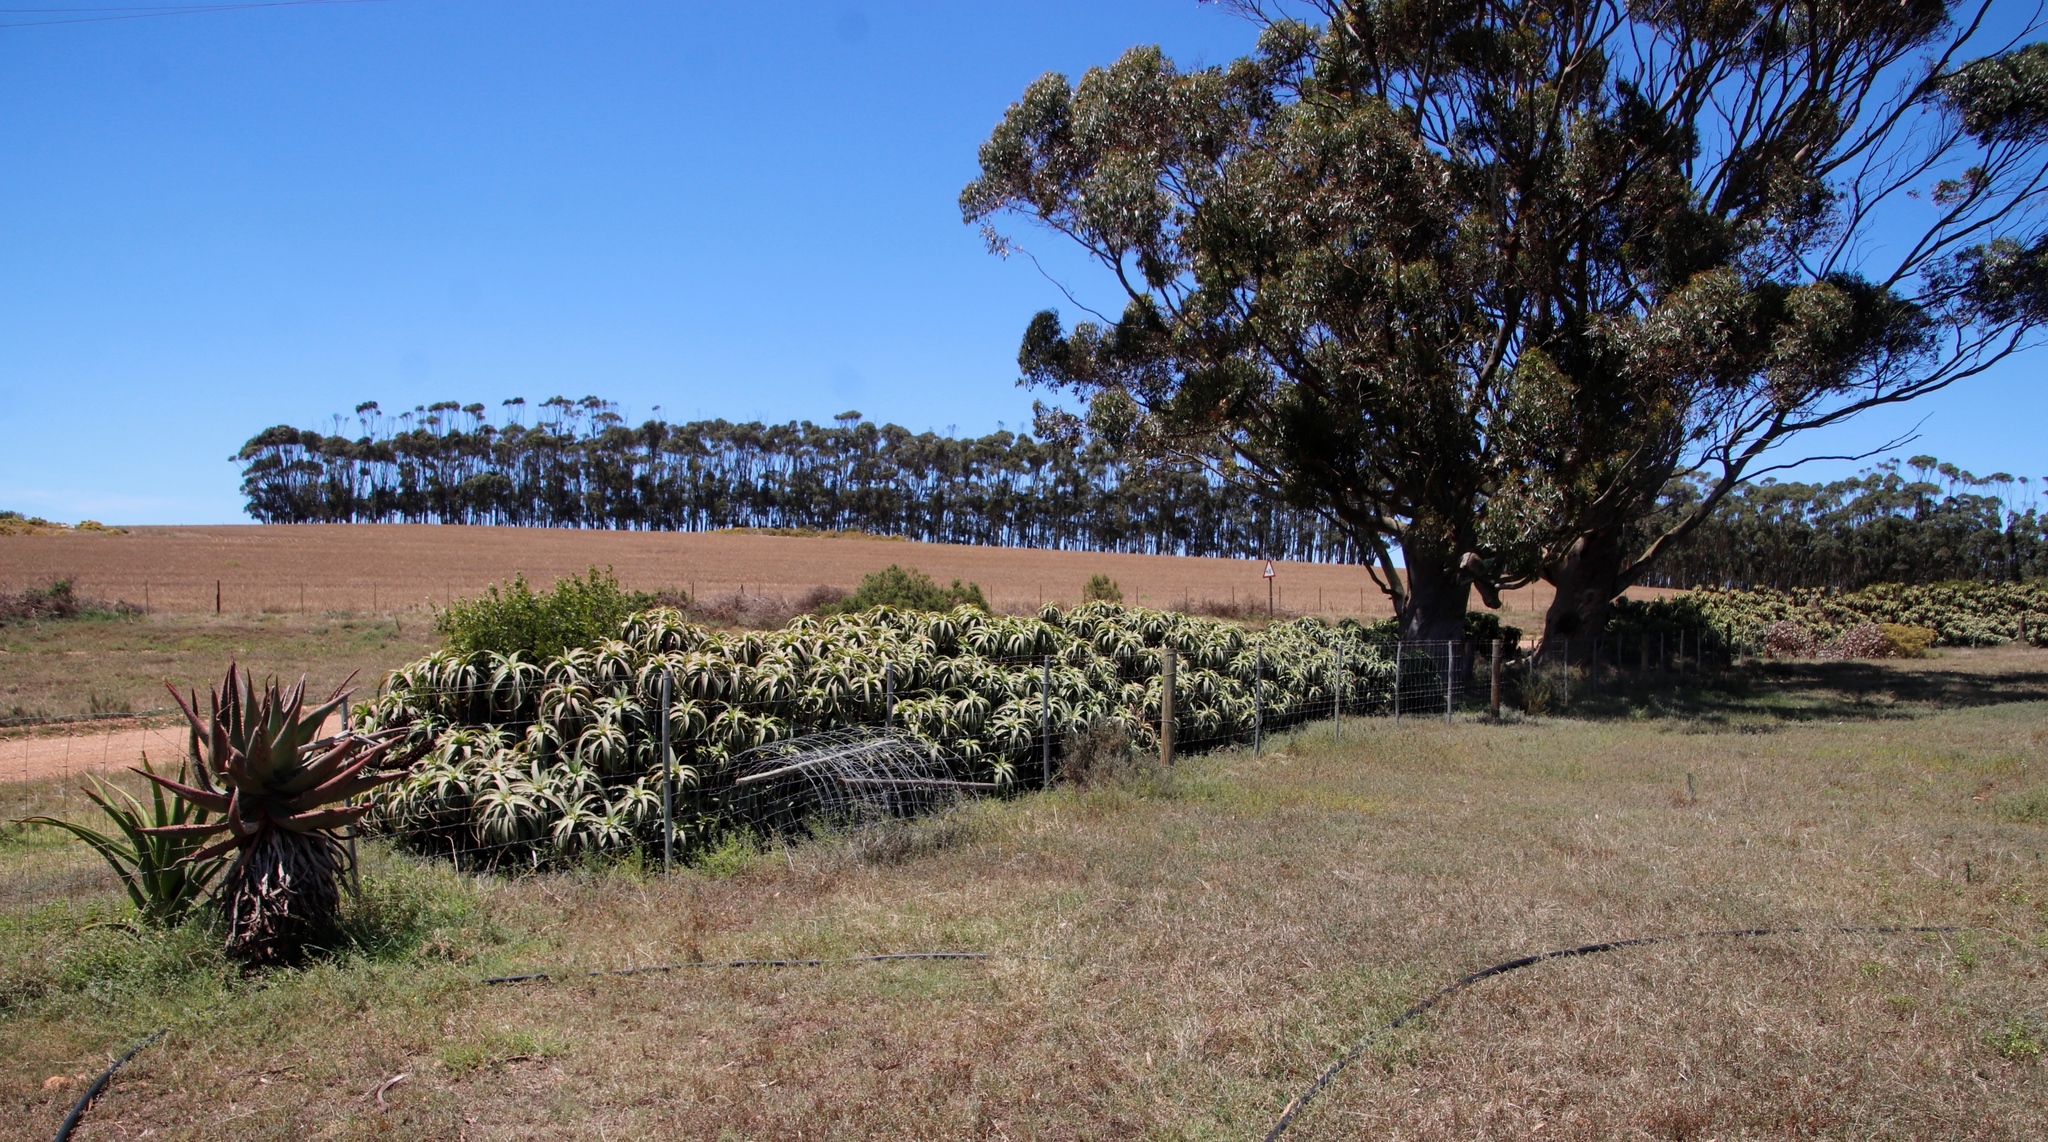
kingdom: Plantae
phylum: Tracheophyta
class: Liliopsida
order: Asparagales
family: Asphodelaceae
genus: Aloe
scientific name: Aloe arborescens
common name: Candelabra aloe
